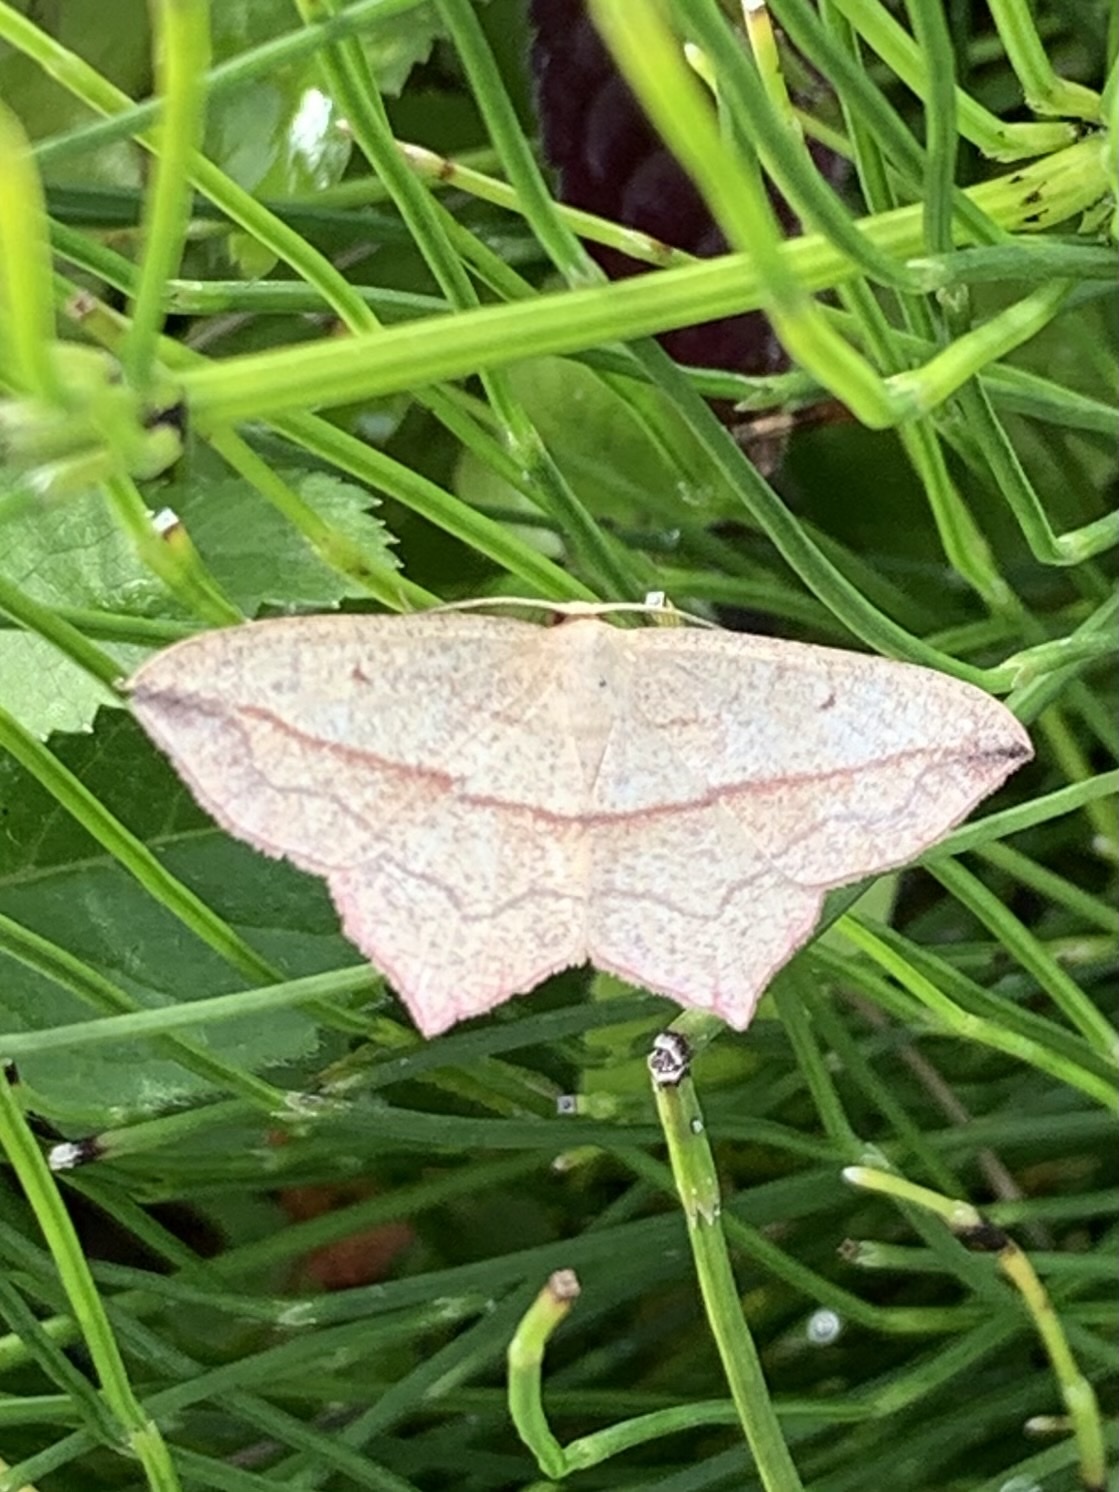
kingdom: Animalia
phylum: Arthropoda
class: Insecta
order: Lepidoptera
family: Geometridae
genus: Timandra
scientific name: Timandra comae
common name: Blood-vein
